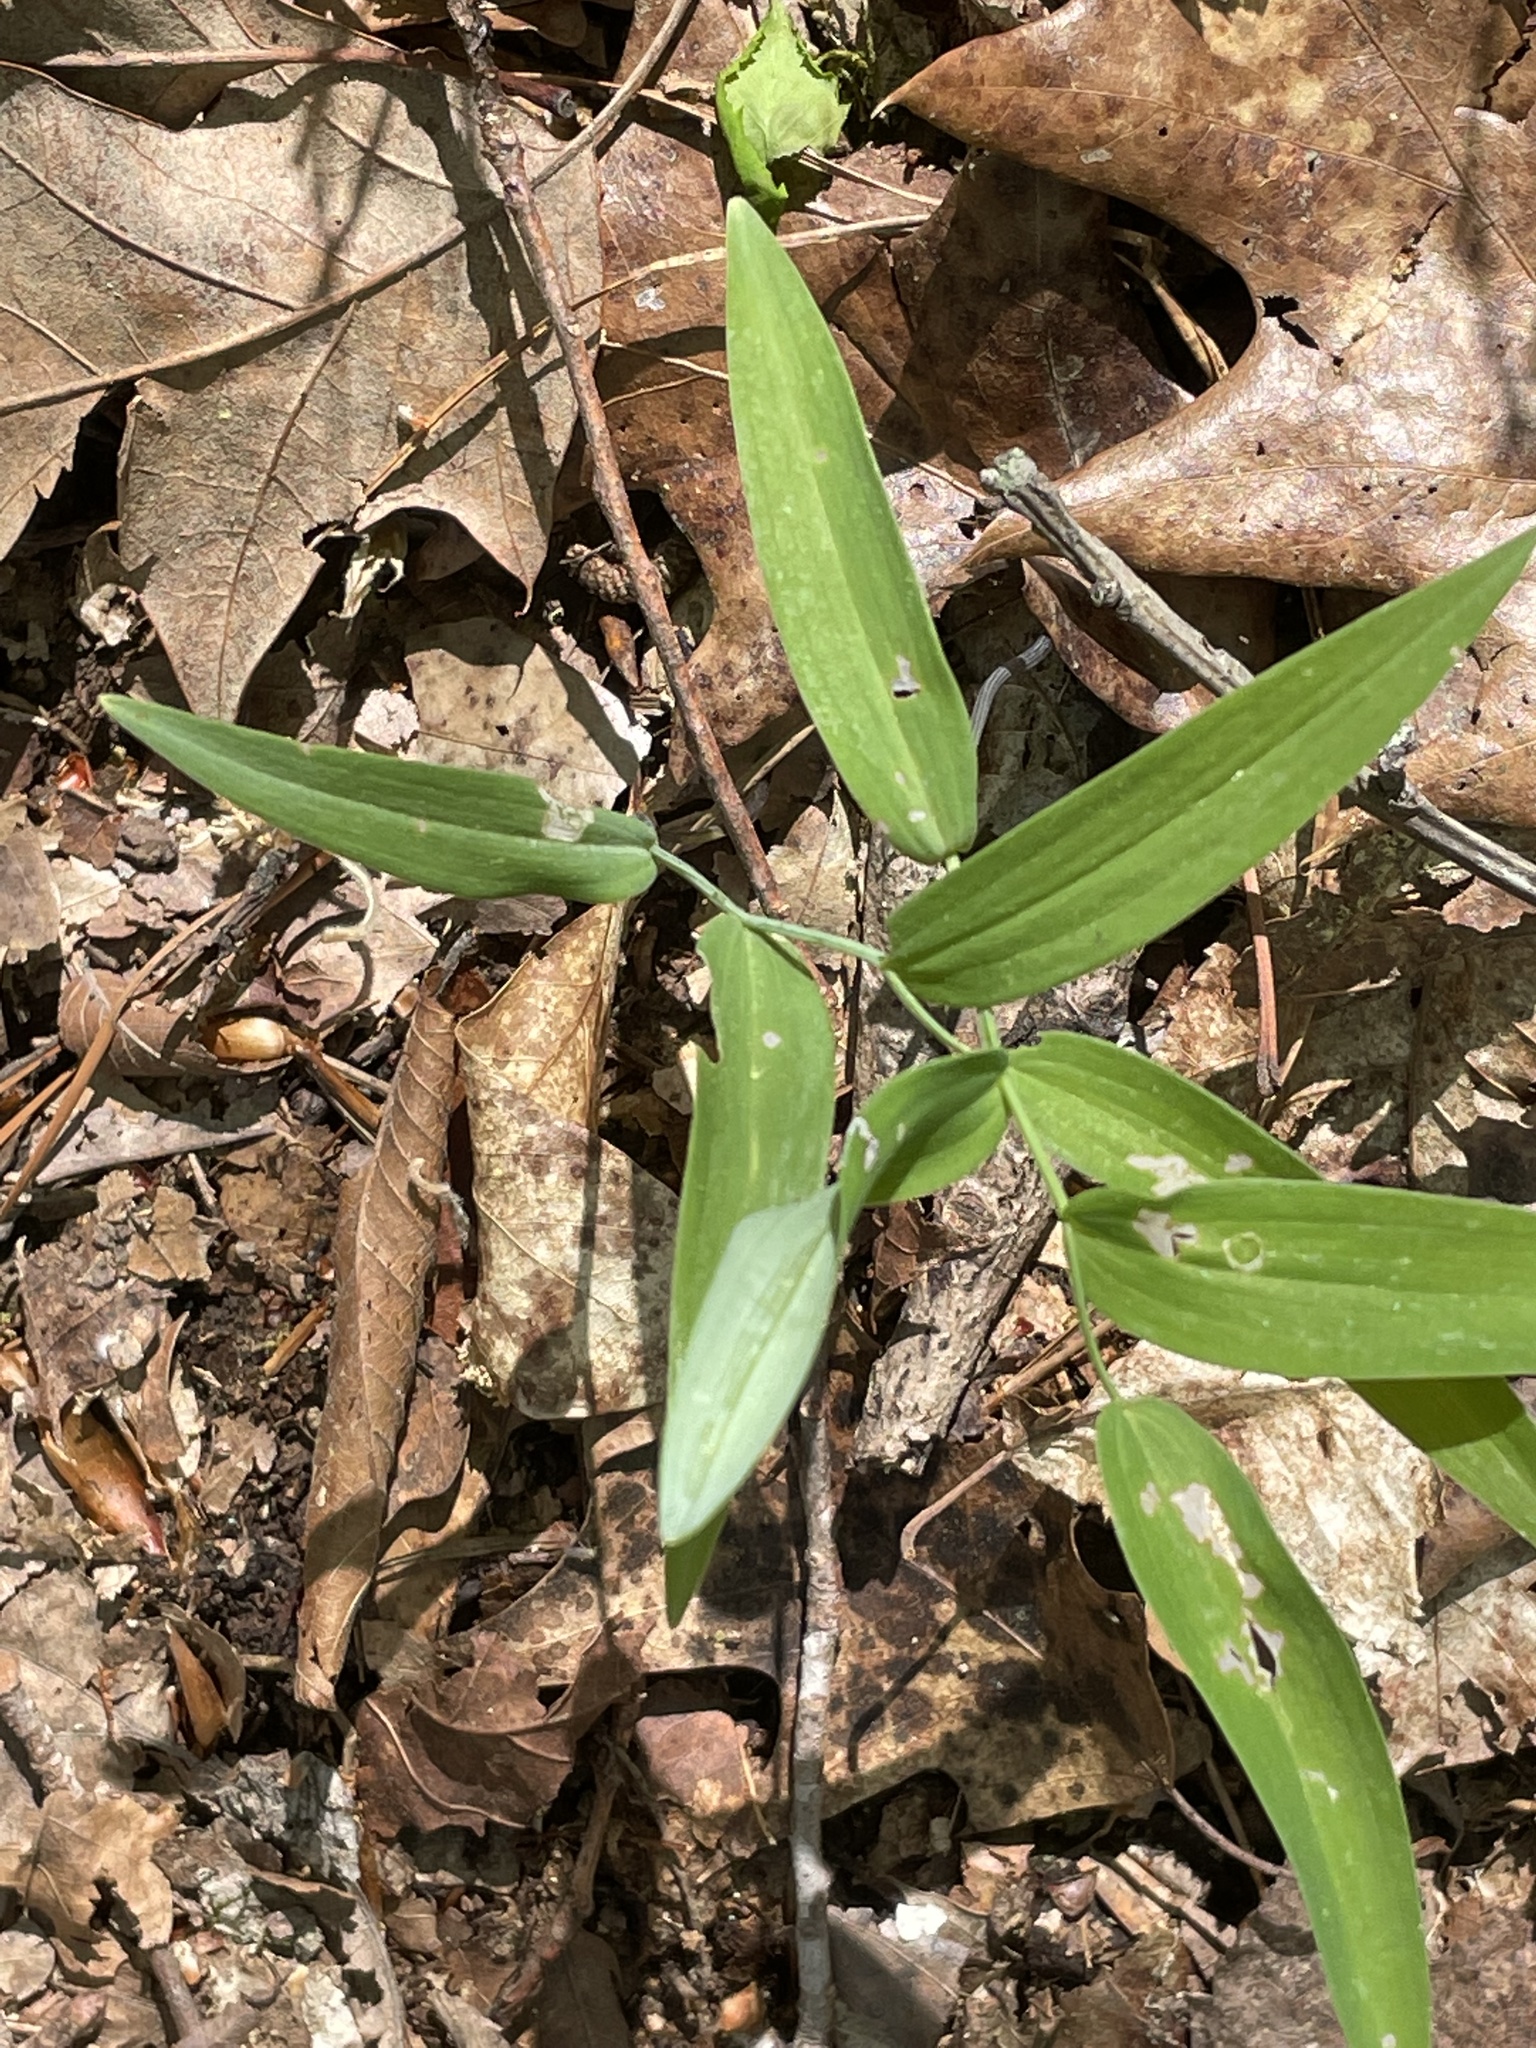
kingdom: Plantae
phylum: Tracheophyta
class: Liliopsida
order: Asparagales
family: Asparagaceae
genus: Polygonatum
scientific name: Polygonatum biflorum
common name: American solomon's-seal
